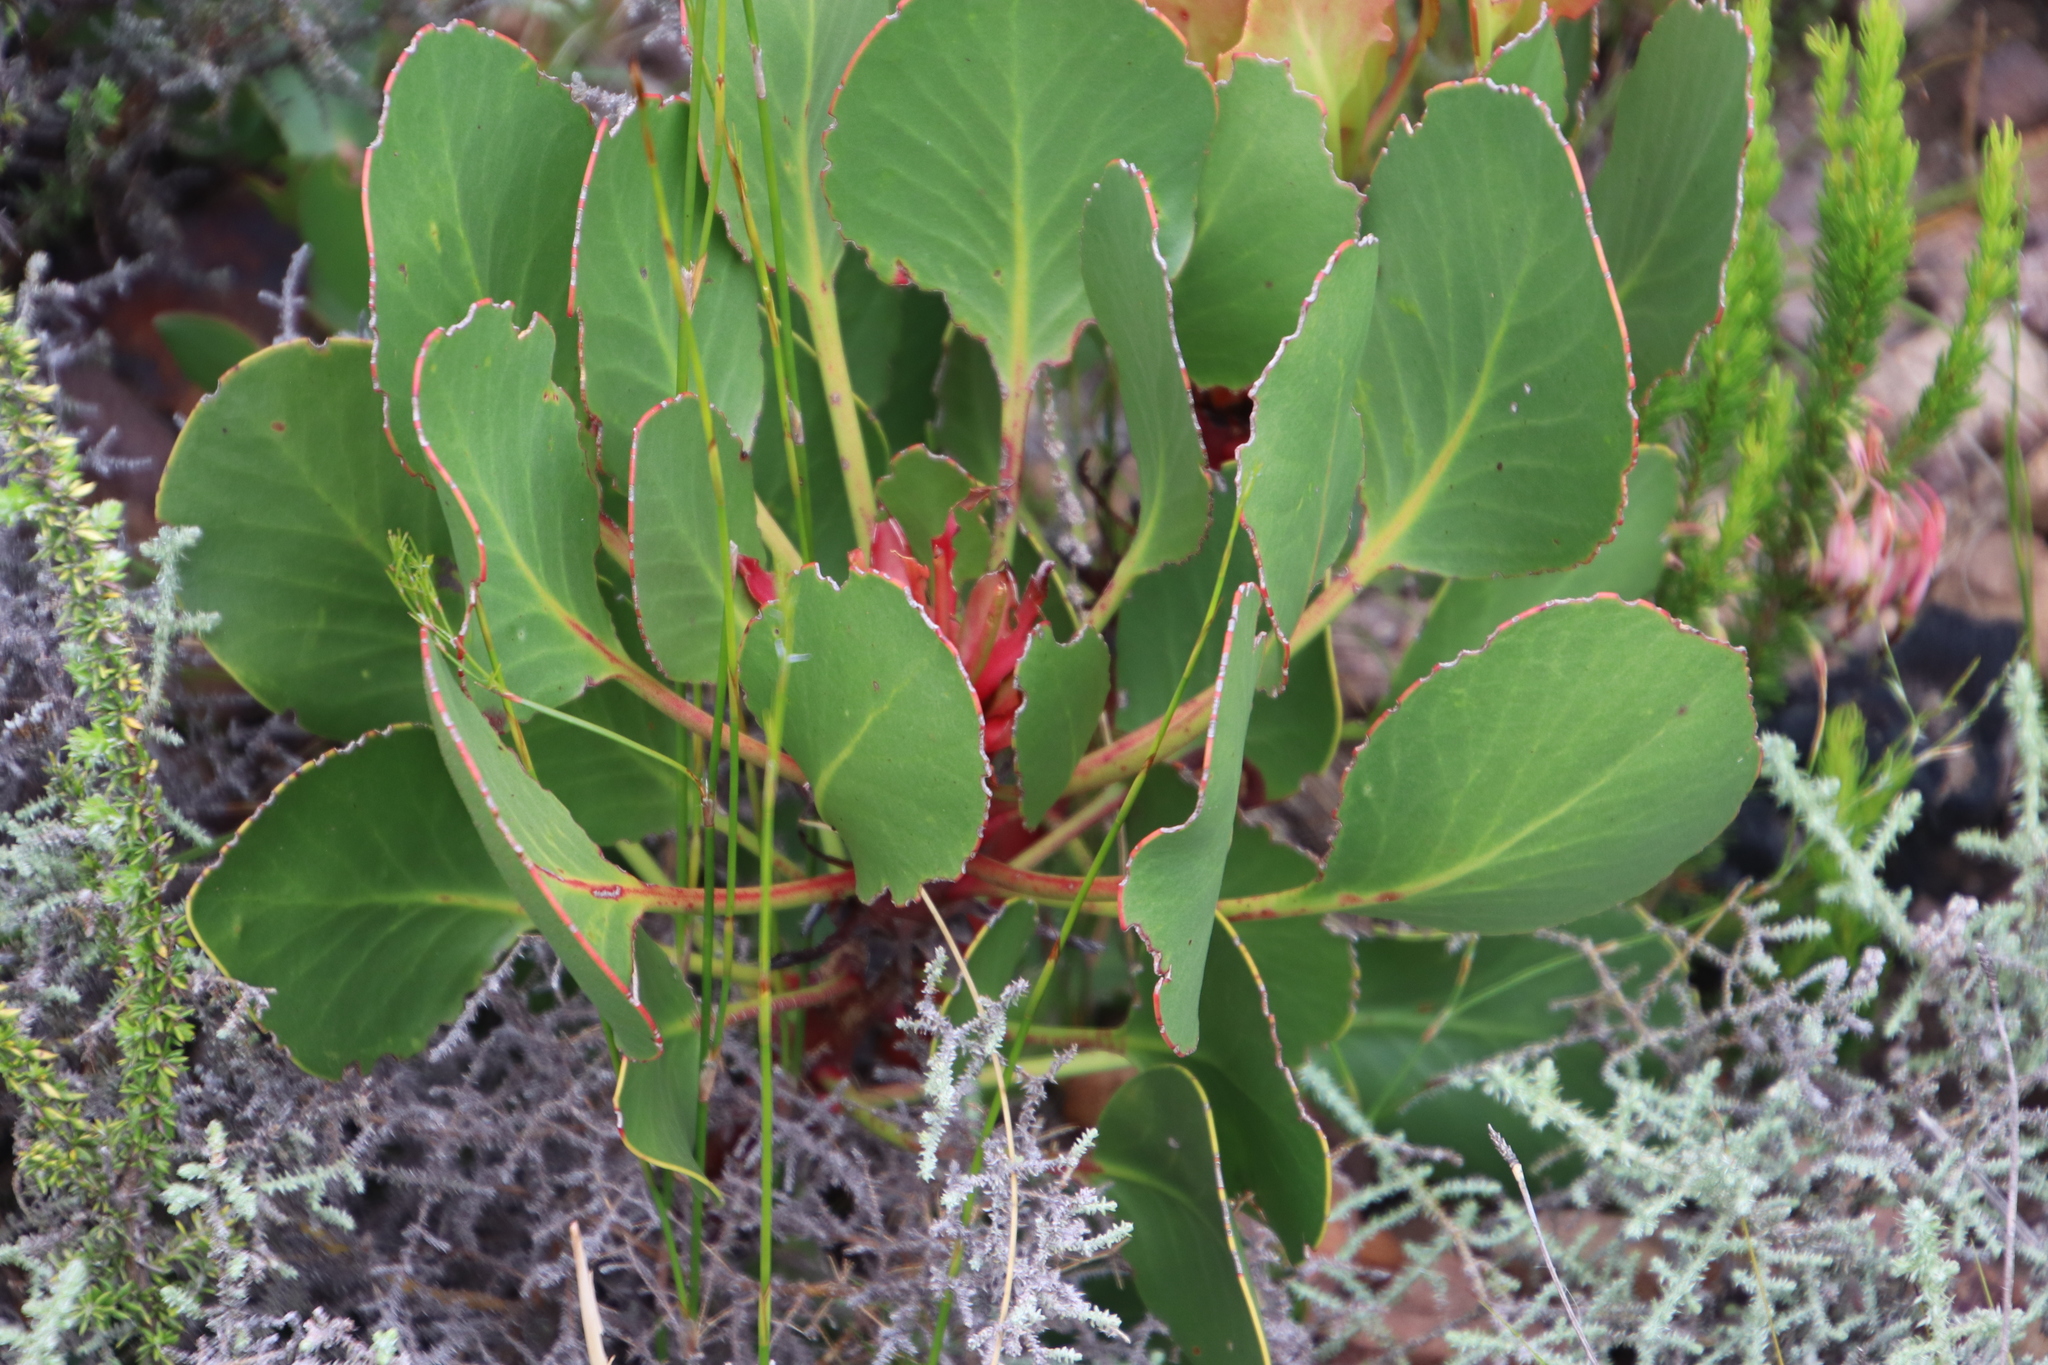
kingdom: Plantae
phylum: Tracheophyta
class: Magnoliopsida
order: Proteales
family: Proteaceae
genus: Protea
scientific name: Protea cynaroides
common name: King protea
